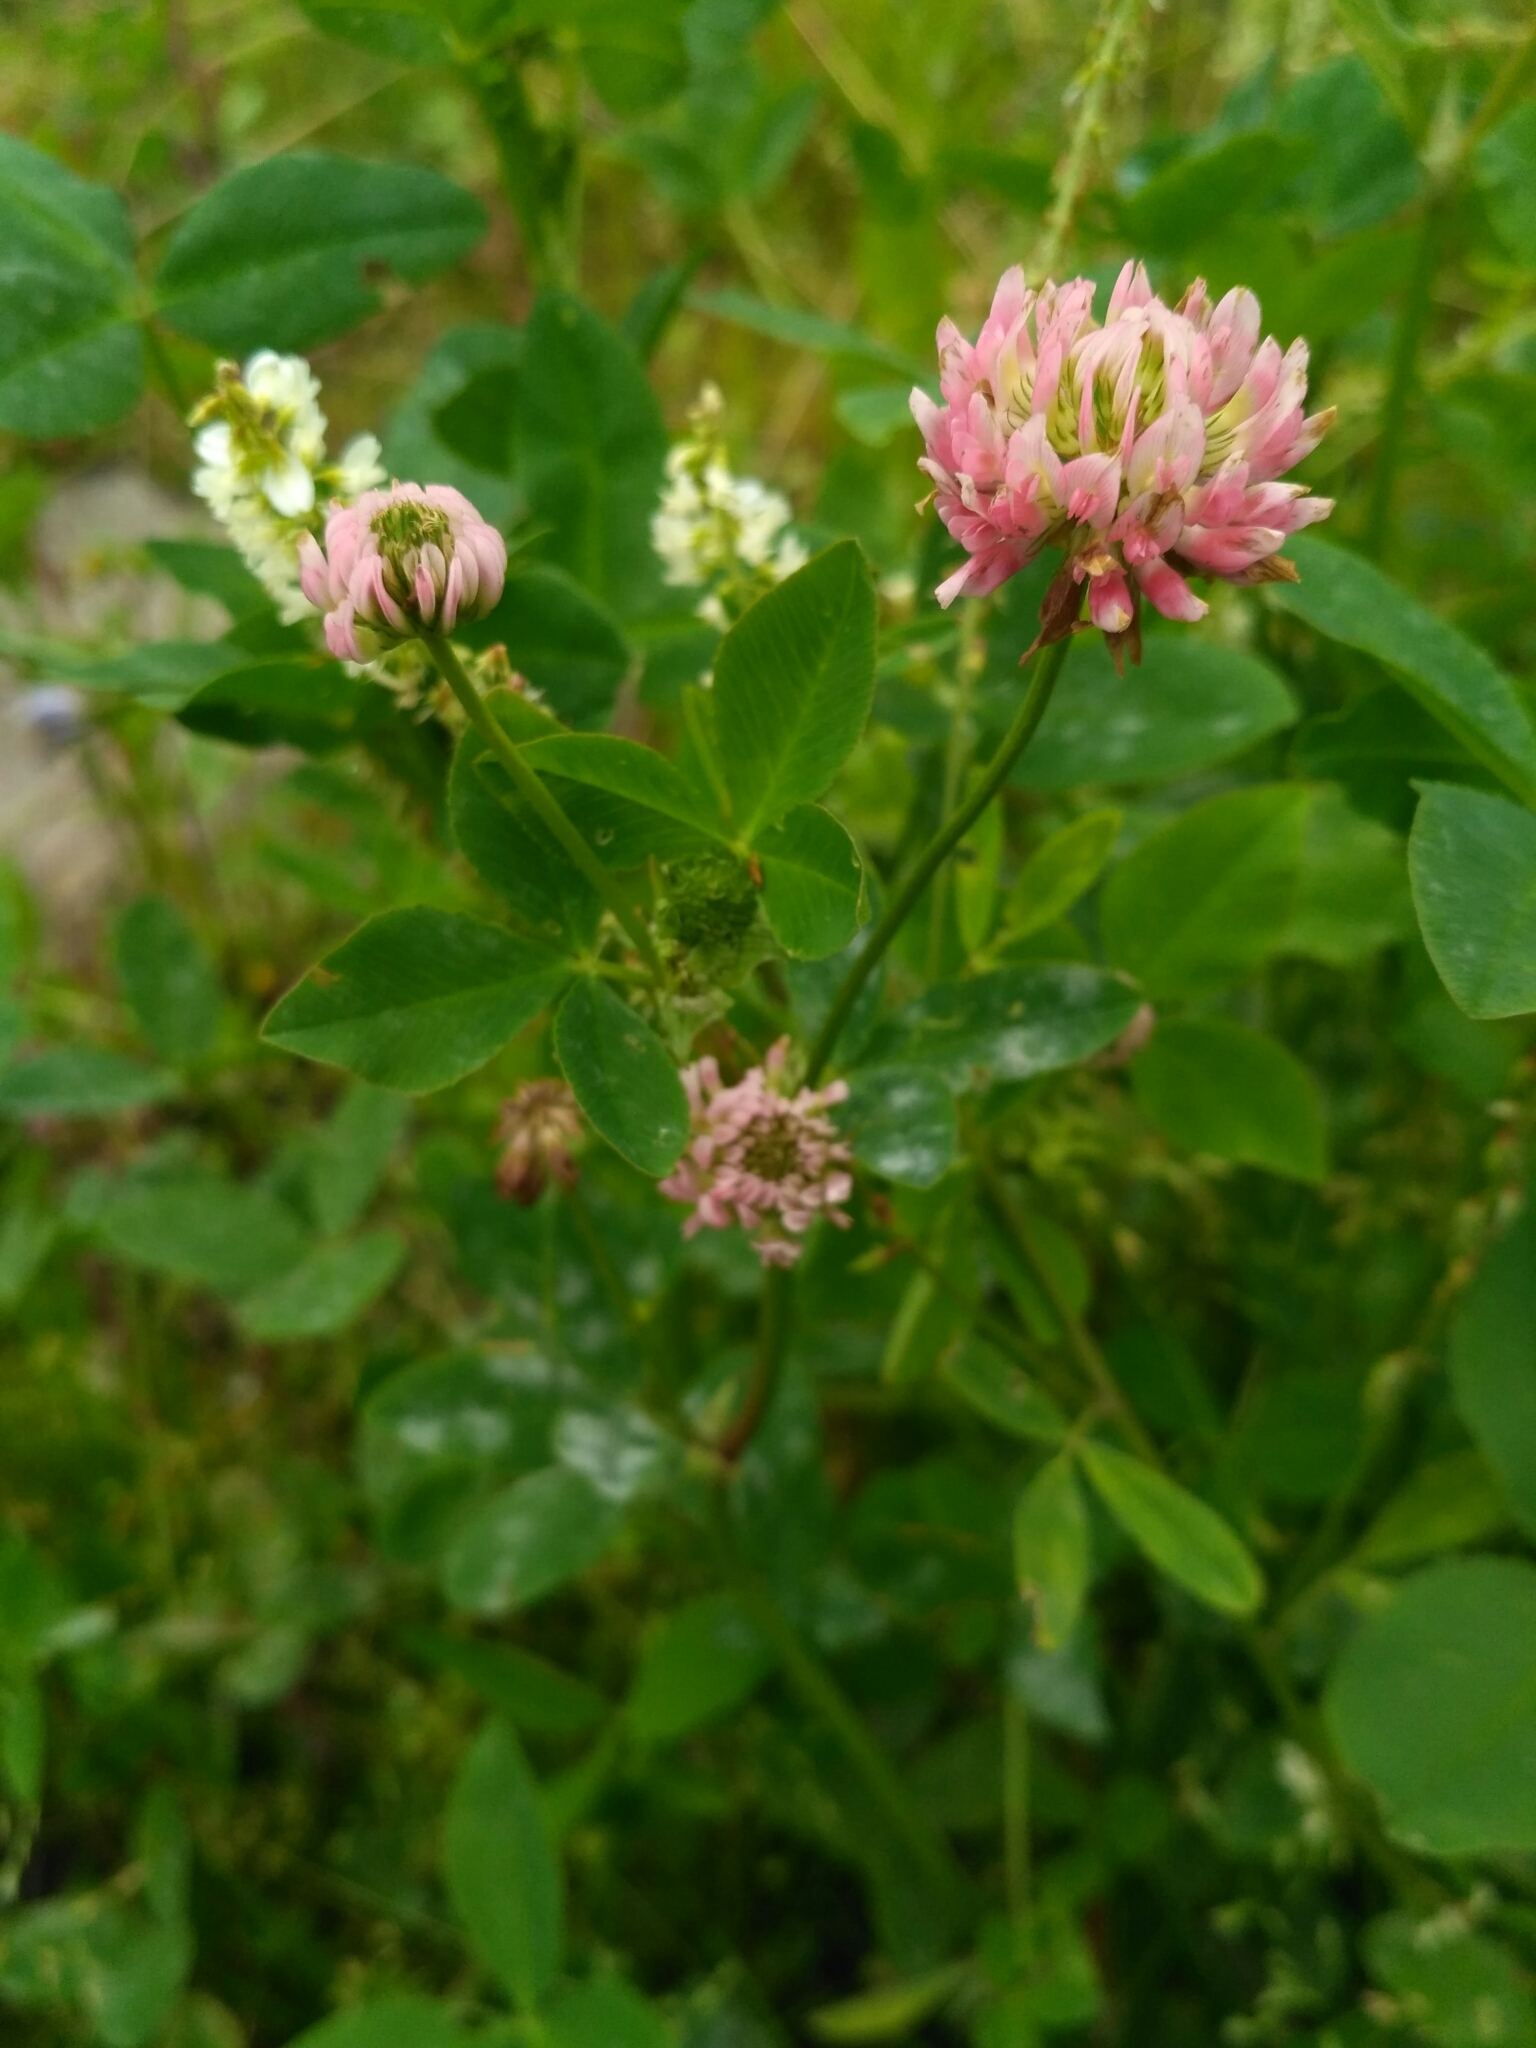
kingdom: Plantae
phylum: Tracheophyta
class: Magnoliopsida
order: Fabales
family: Fabaceae
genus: Trifolium
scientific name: Trifolium hybridum
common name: Alsike clover
